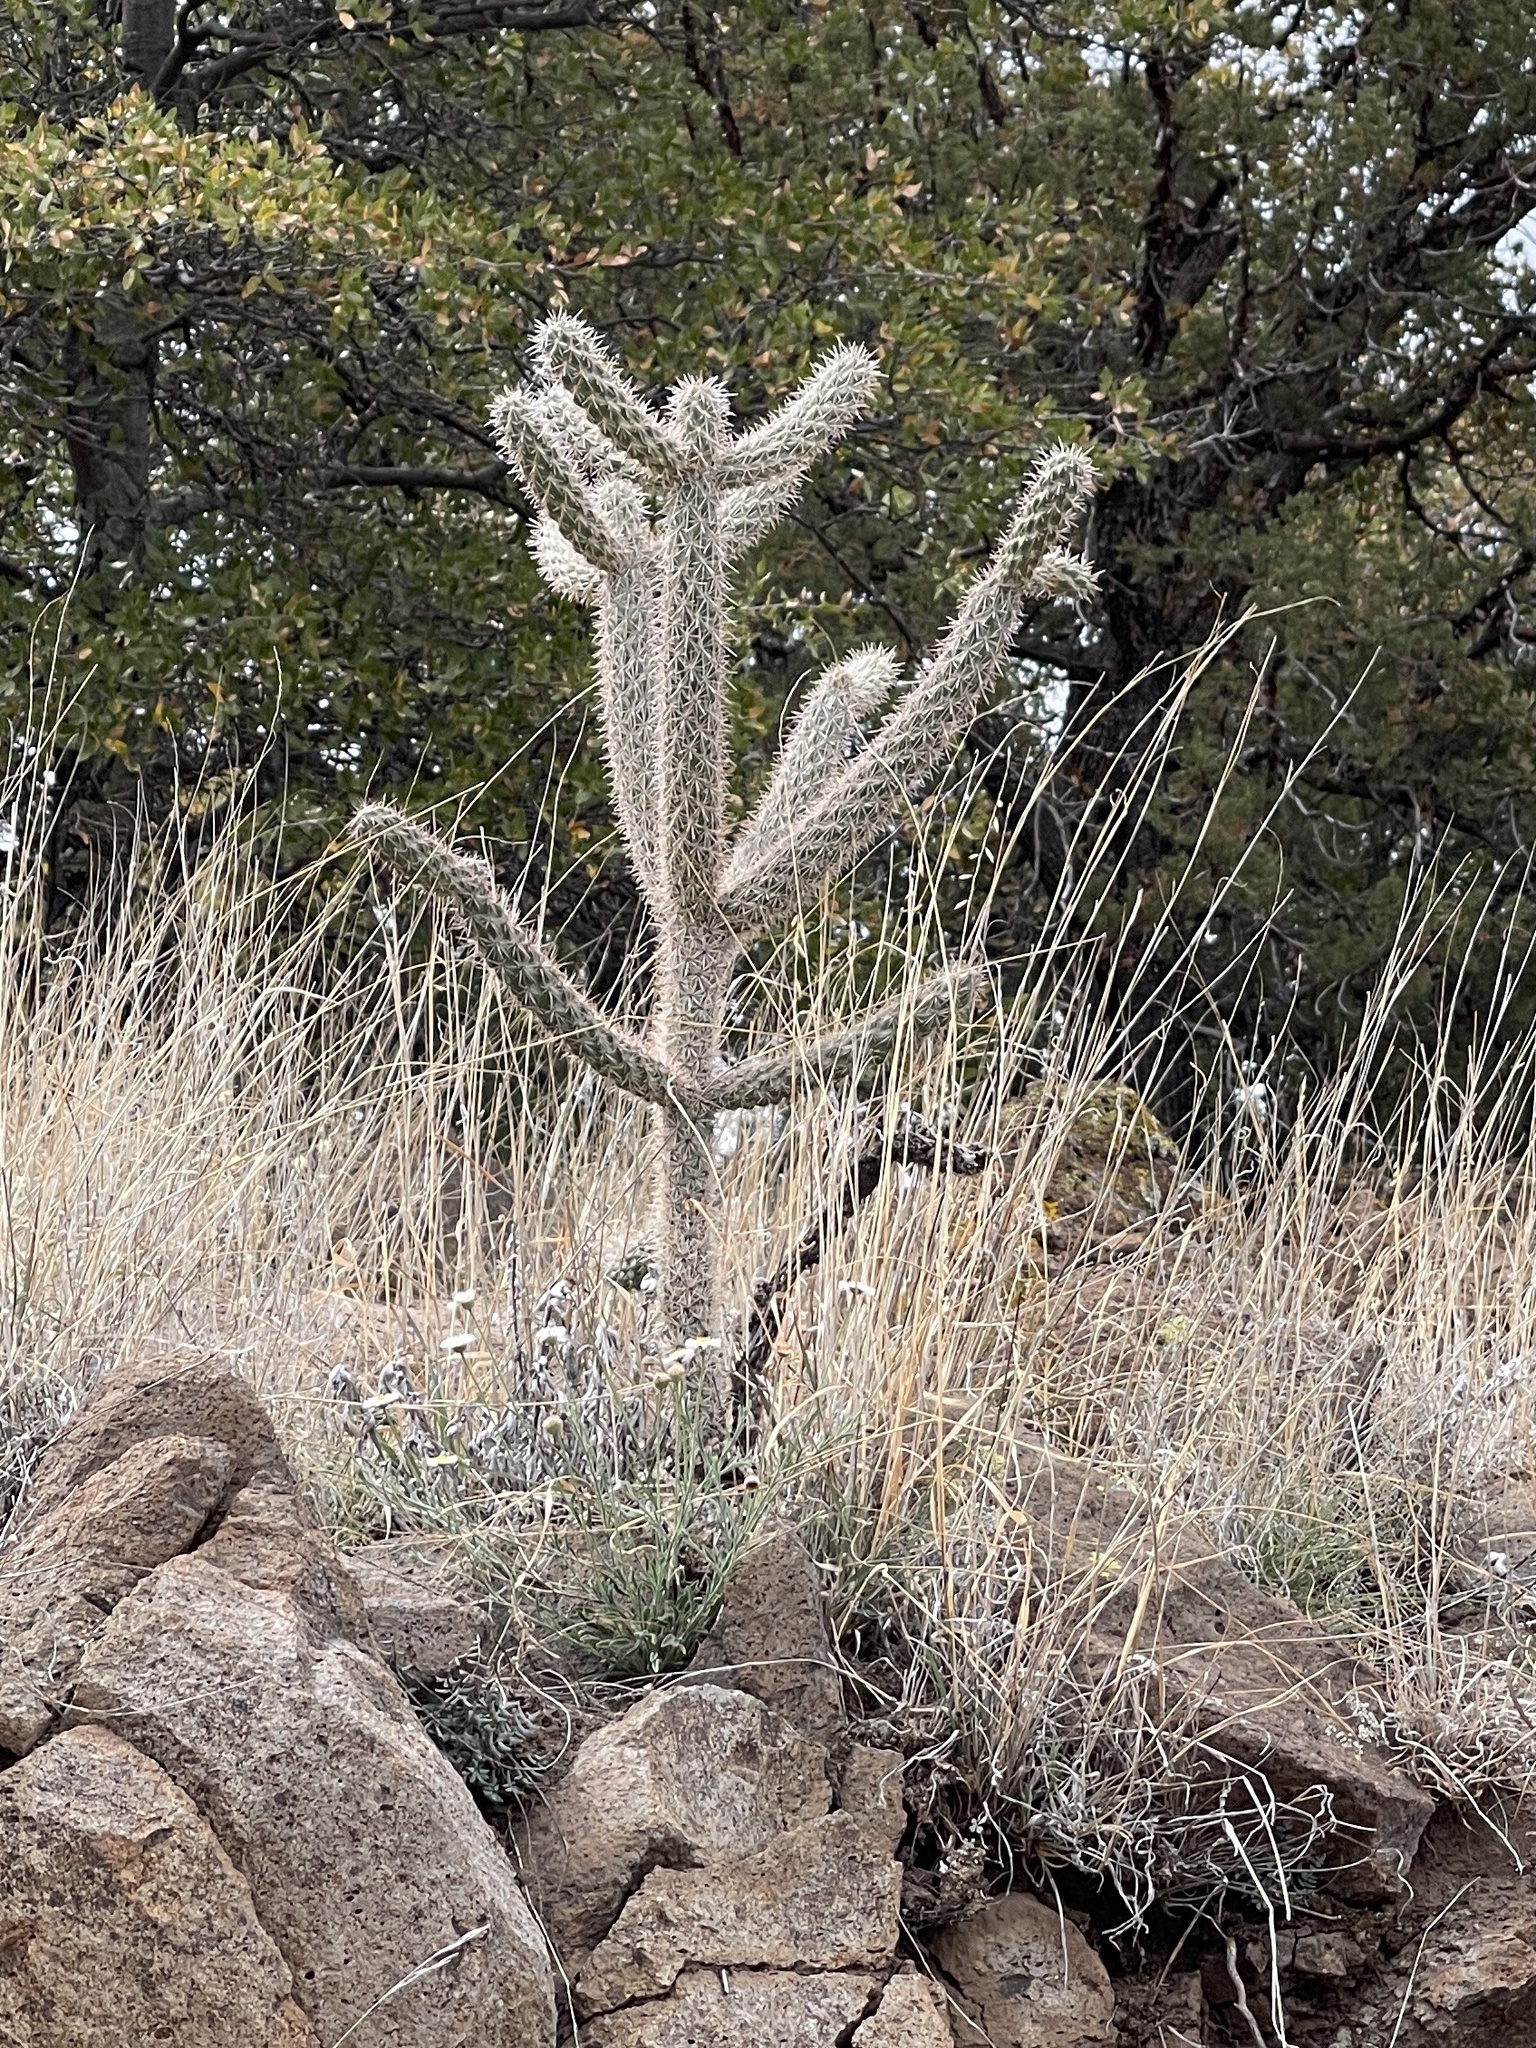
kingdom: Plantae
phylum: Tracheophyta
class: Magnoliopsida
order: Caryophyllales
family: Cactaceae
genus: Cylindropuntia
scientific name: Cylindropuntia imbricata
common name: Candelabrum cactus
